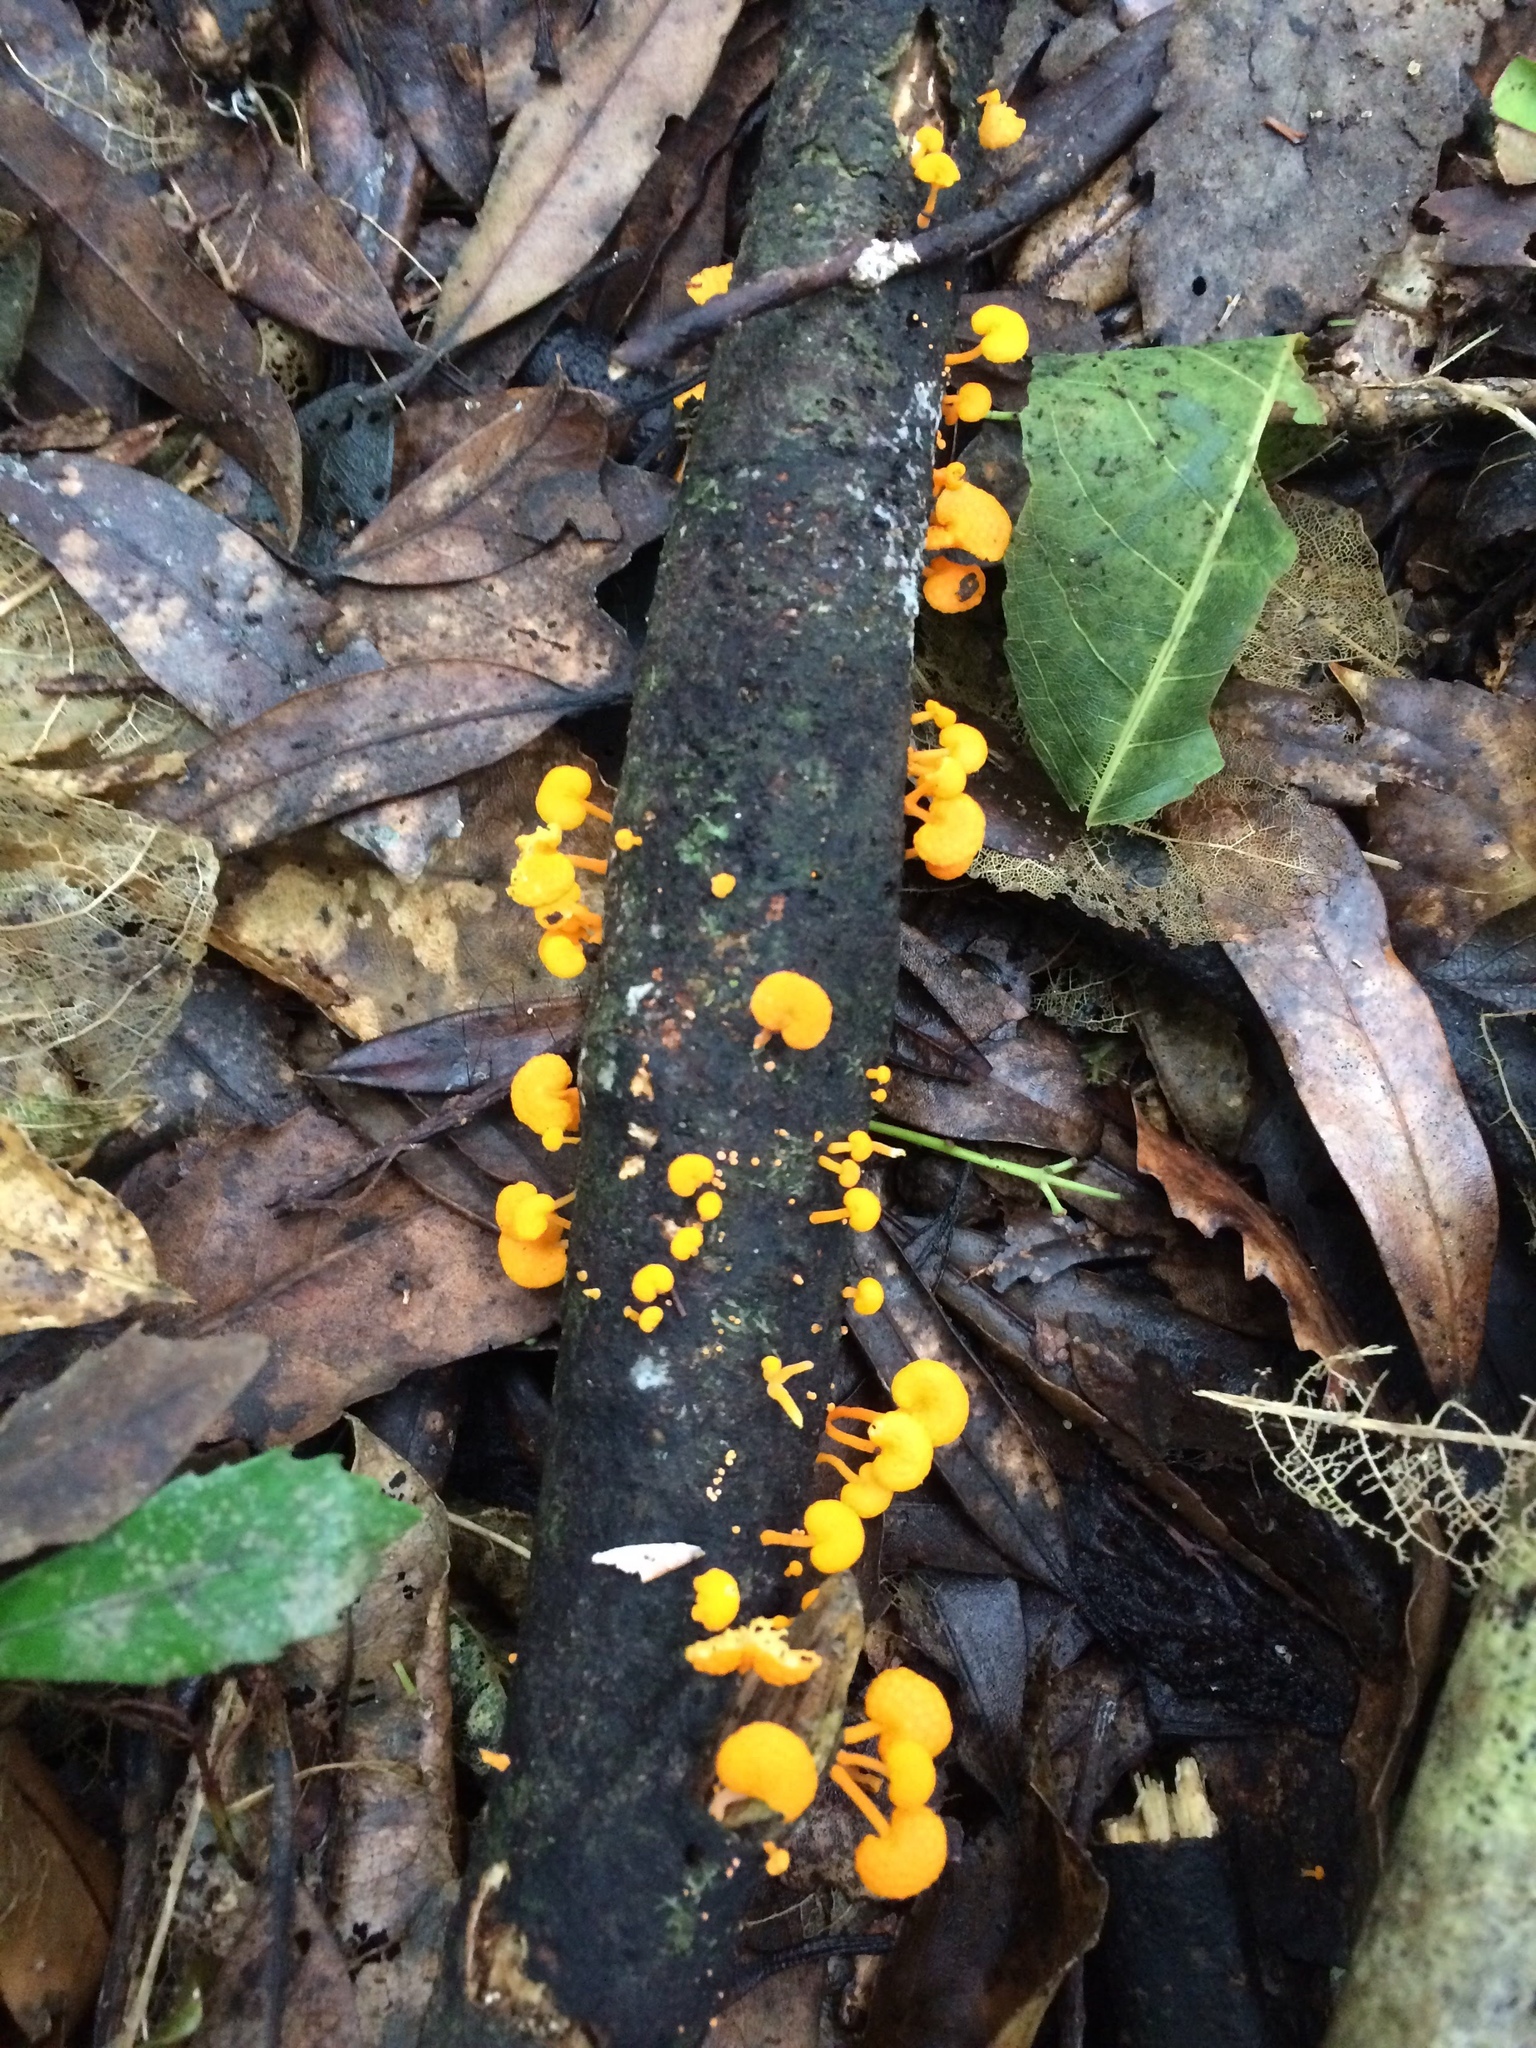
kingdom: Fungi
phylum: Basidiomycota
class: Agaricomycetes
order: Agaricales
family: Mycenaceae
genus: Favolaschia
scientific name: Favolaschia claudopus
